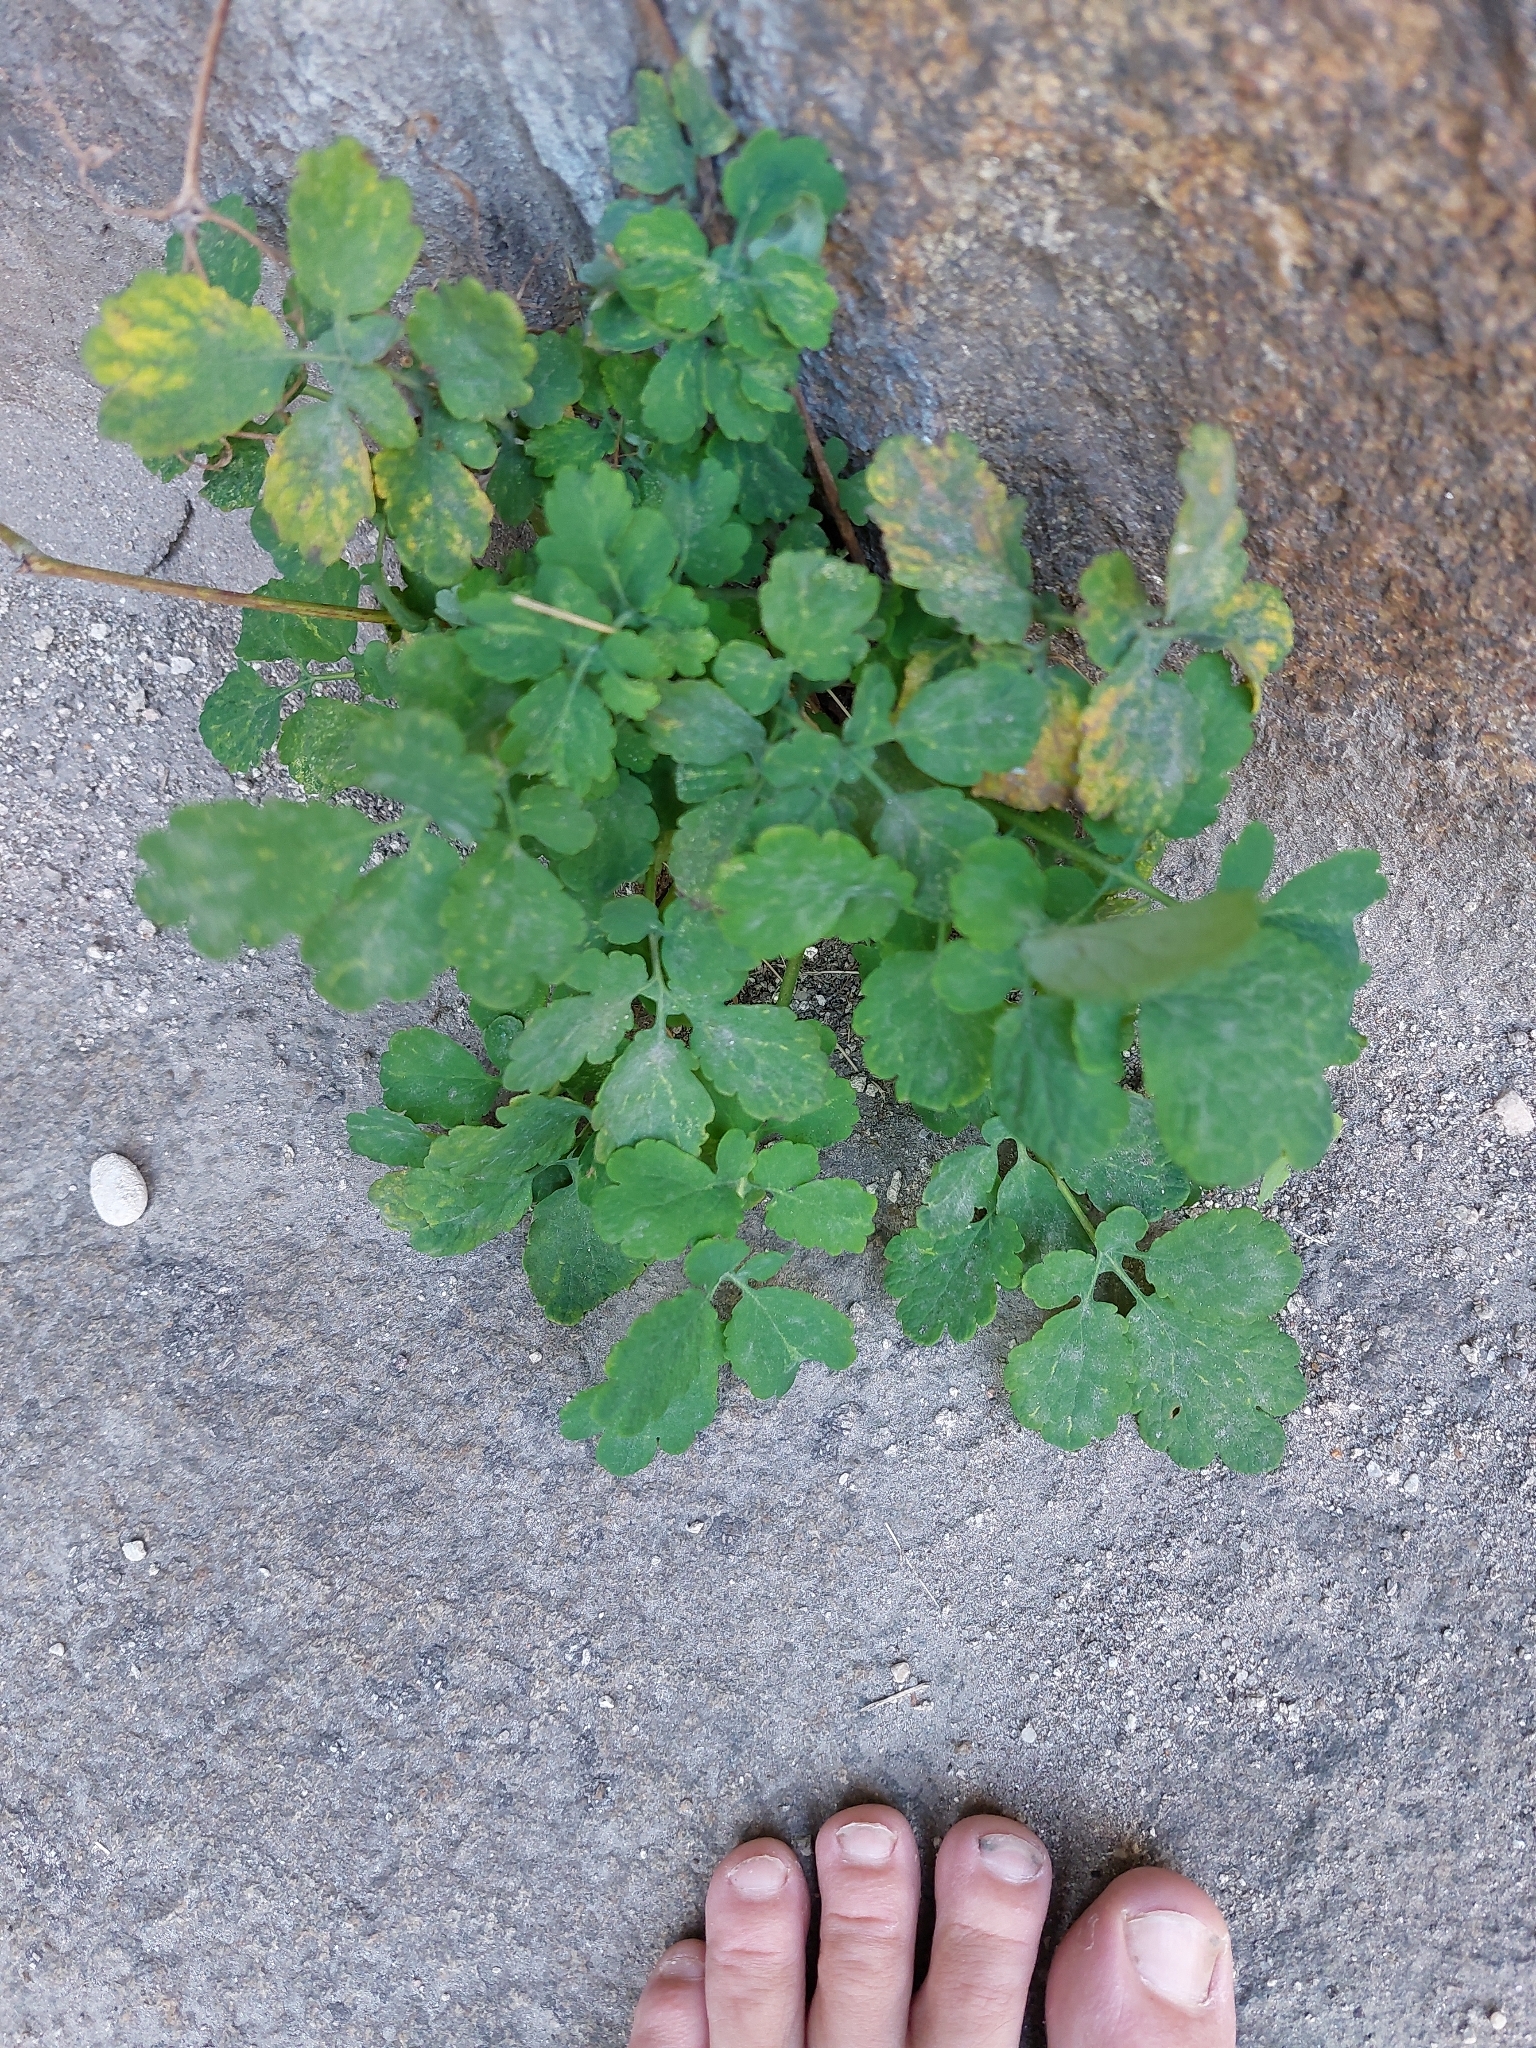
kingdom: Plantae
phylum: Tracheophyta
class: Magnoliopsida
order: Ranunculales
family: Papaveraceae
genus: Chelidonium
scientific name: Chelidonium majus
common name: Greater celandine
